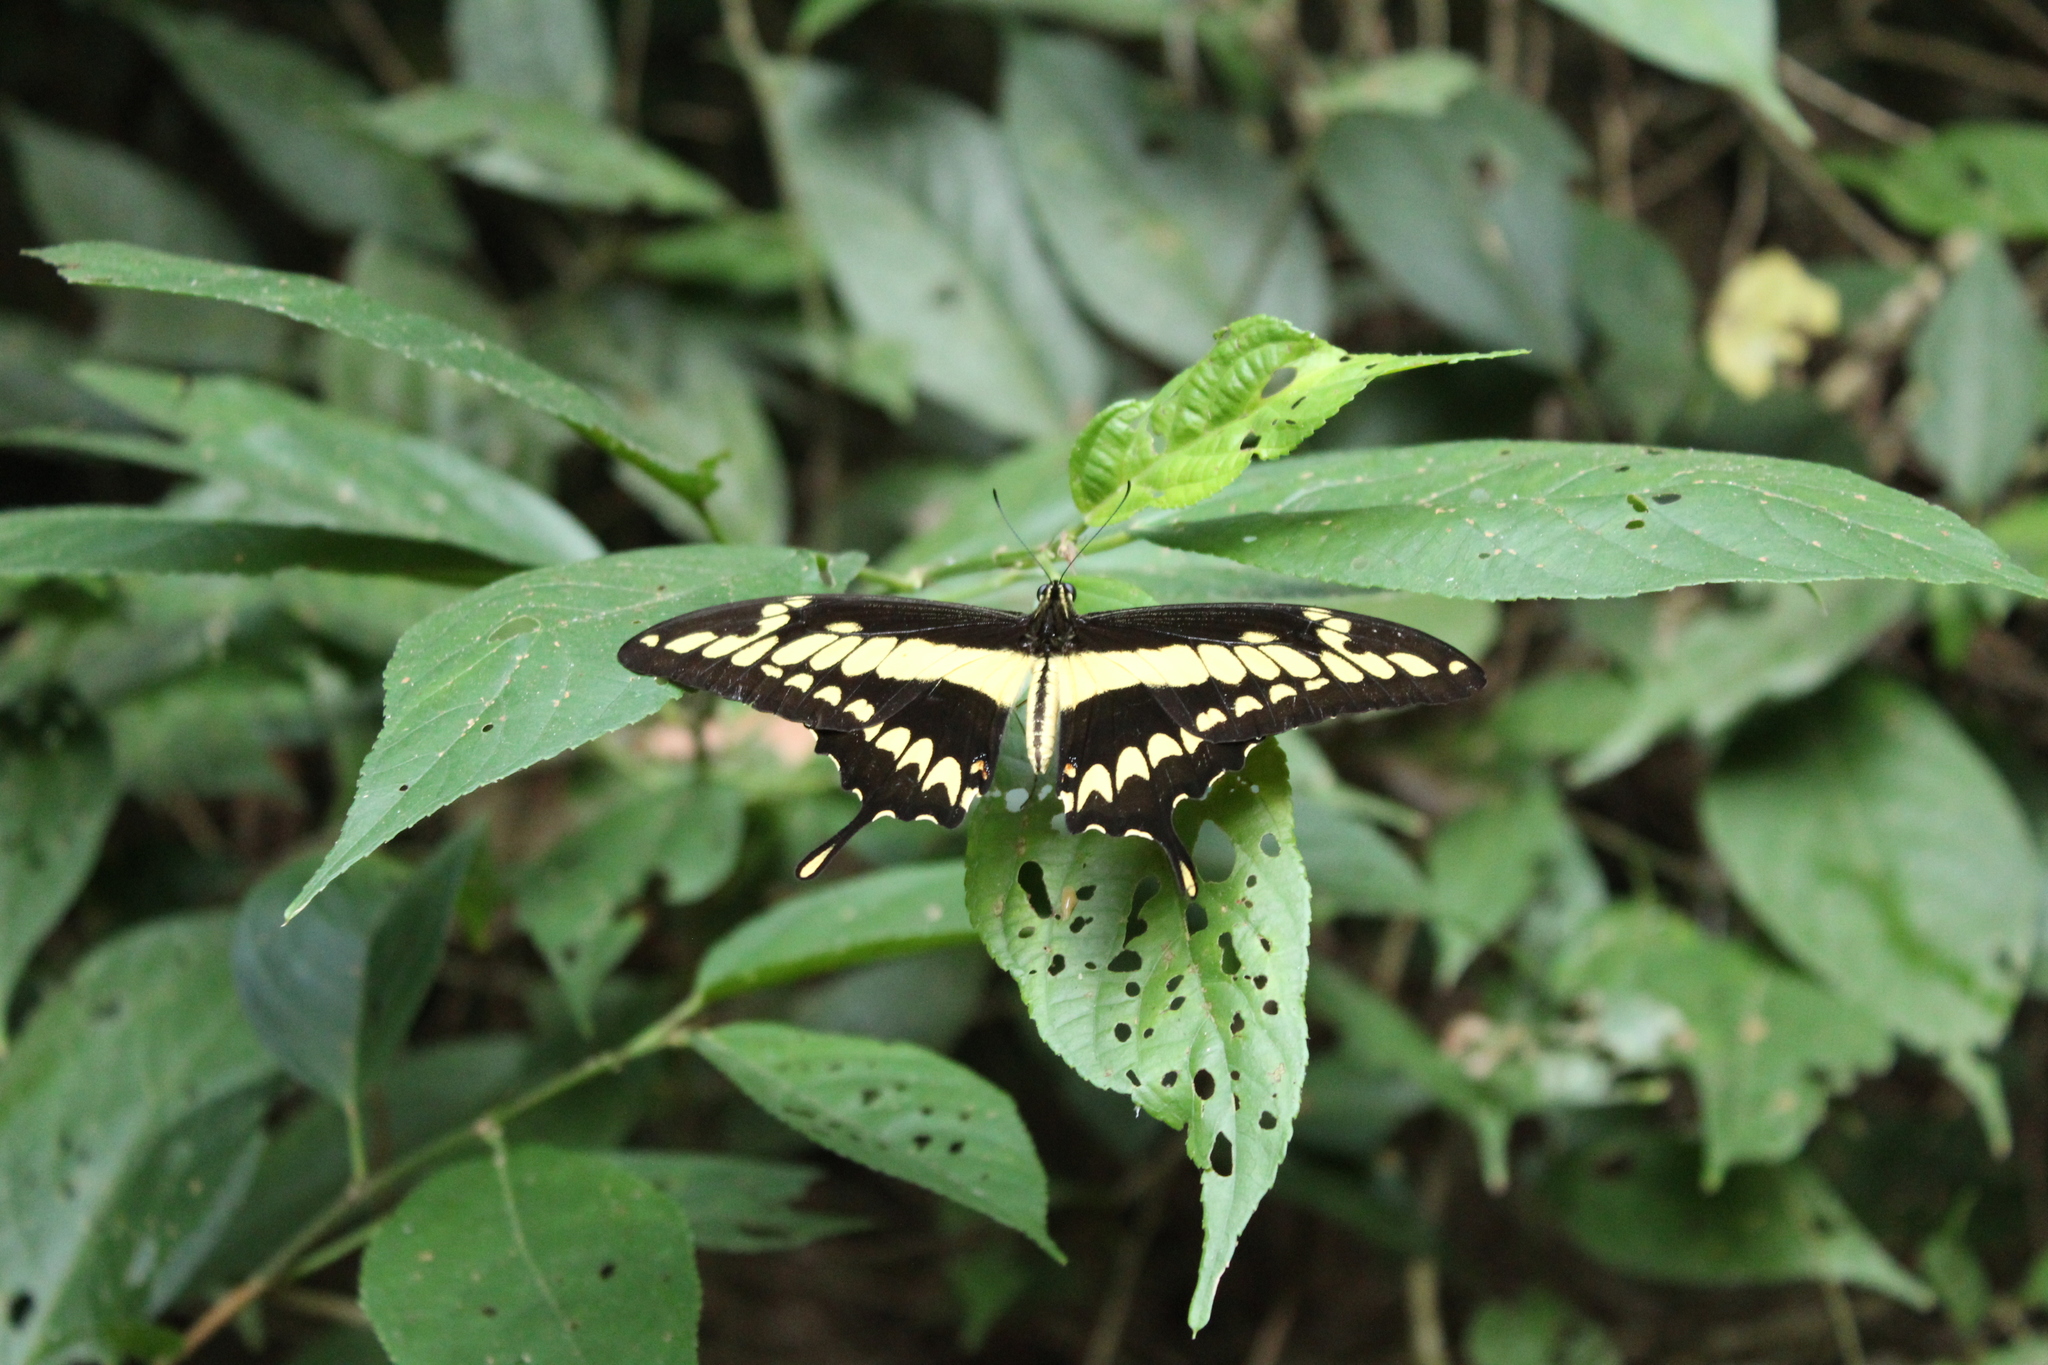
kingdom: Animalia
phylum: Arthropoda
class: Insecta
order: Lepidoptera
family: Papilionidae
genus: Papilio
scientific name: Papilio thoas
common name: King swallowtail
